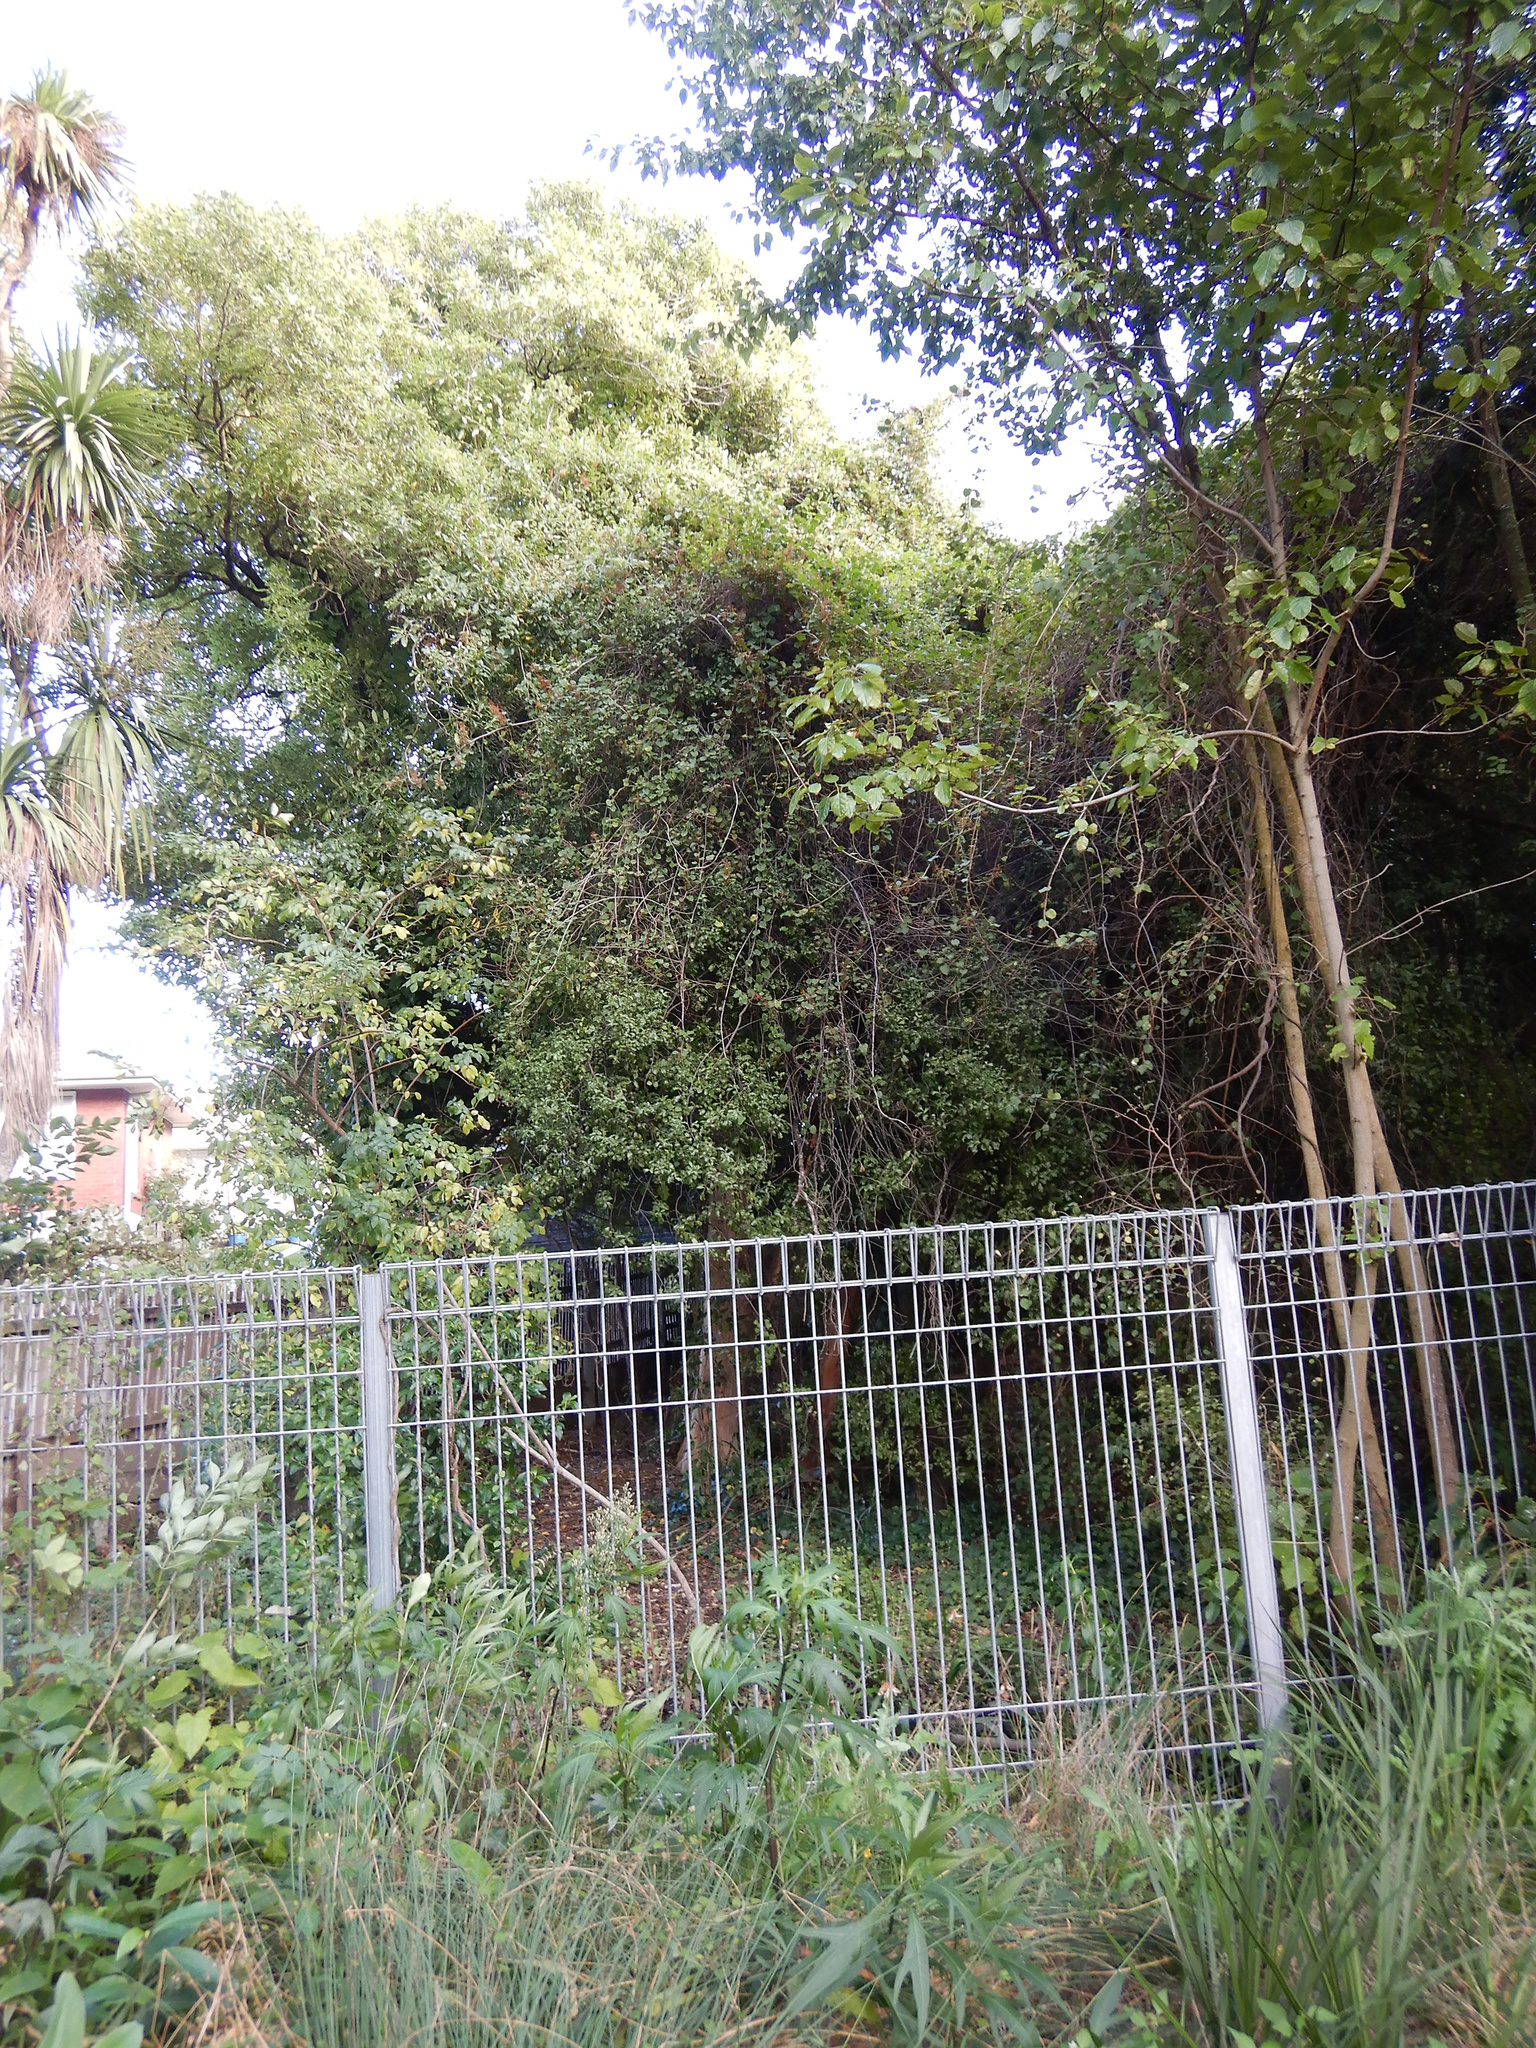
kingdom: Plantae
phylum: Tracheophyta
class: Magnoliopsida
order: Caryophyllales
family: Polygonaceae
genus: Muehlenbeckia
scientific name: Muehlenbeckia australis
